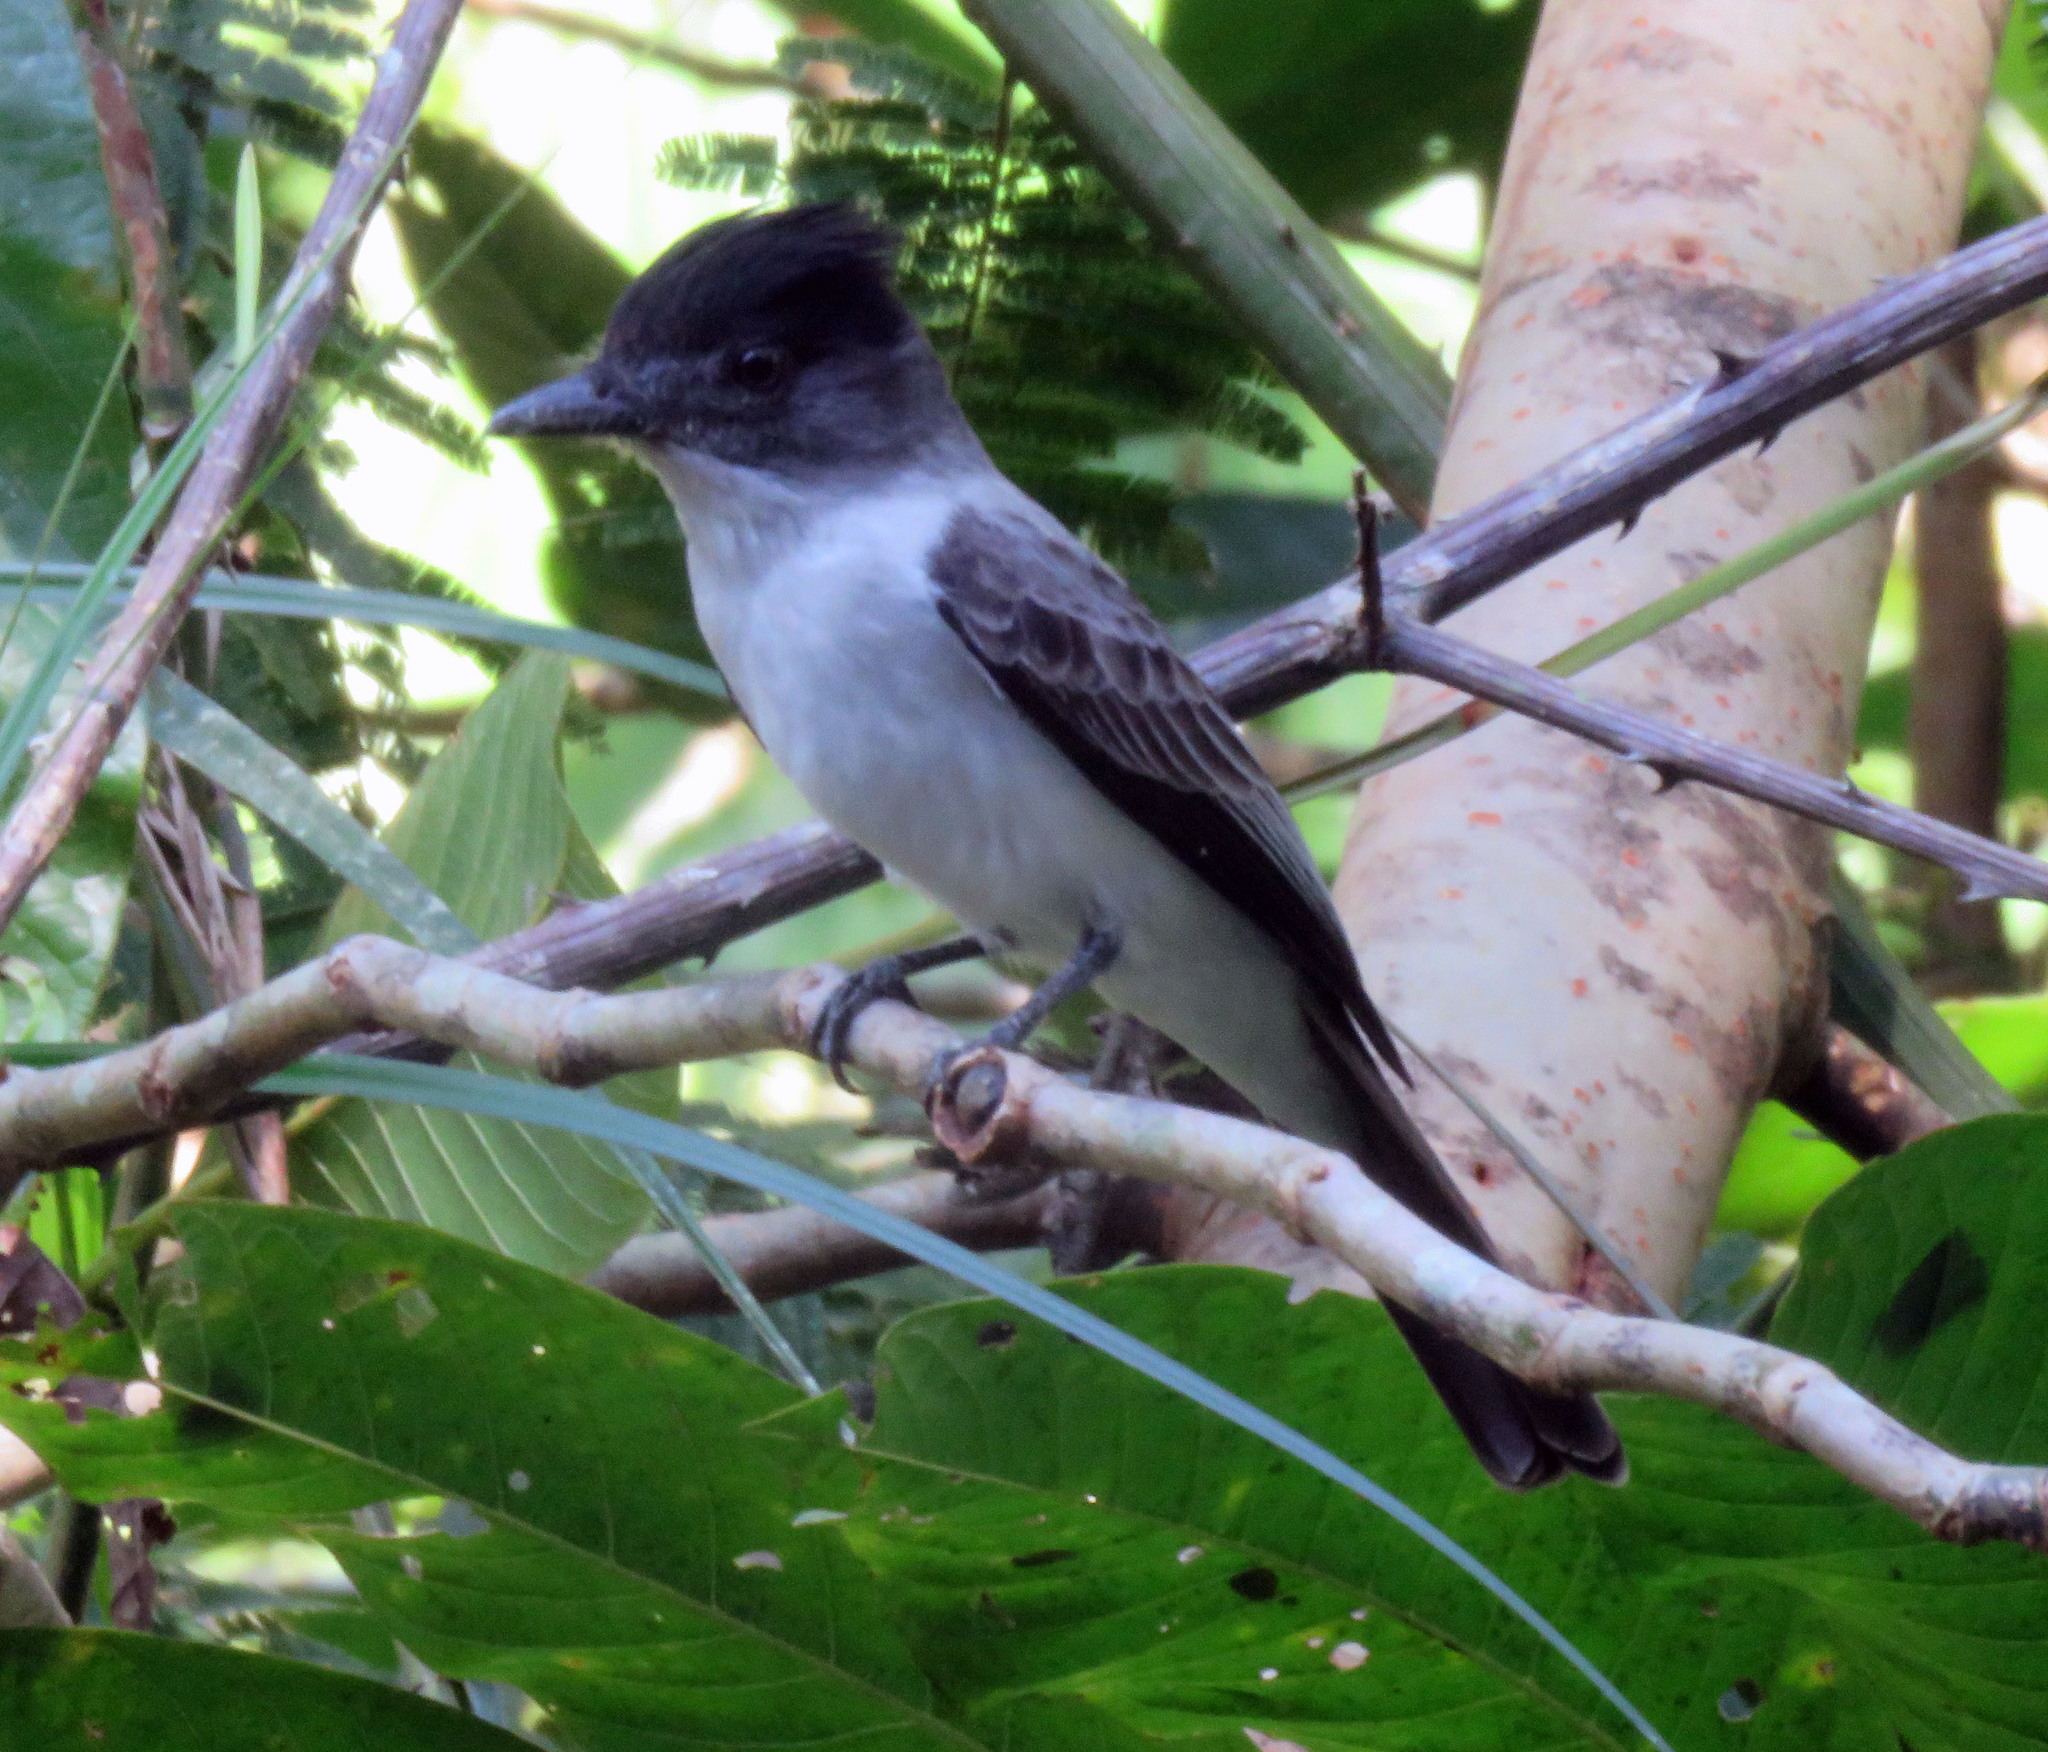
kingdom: Animalia
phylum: Chordata
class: Aves
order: Passeriformes
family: Tyrannidae
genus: Sirystes
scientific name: Sirystes albocinereus
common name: White-rumped sirystes
